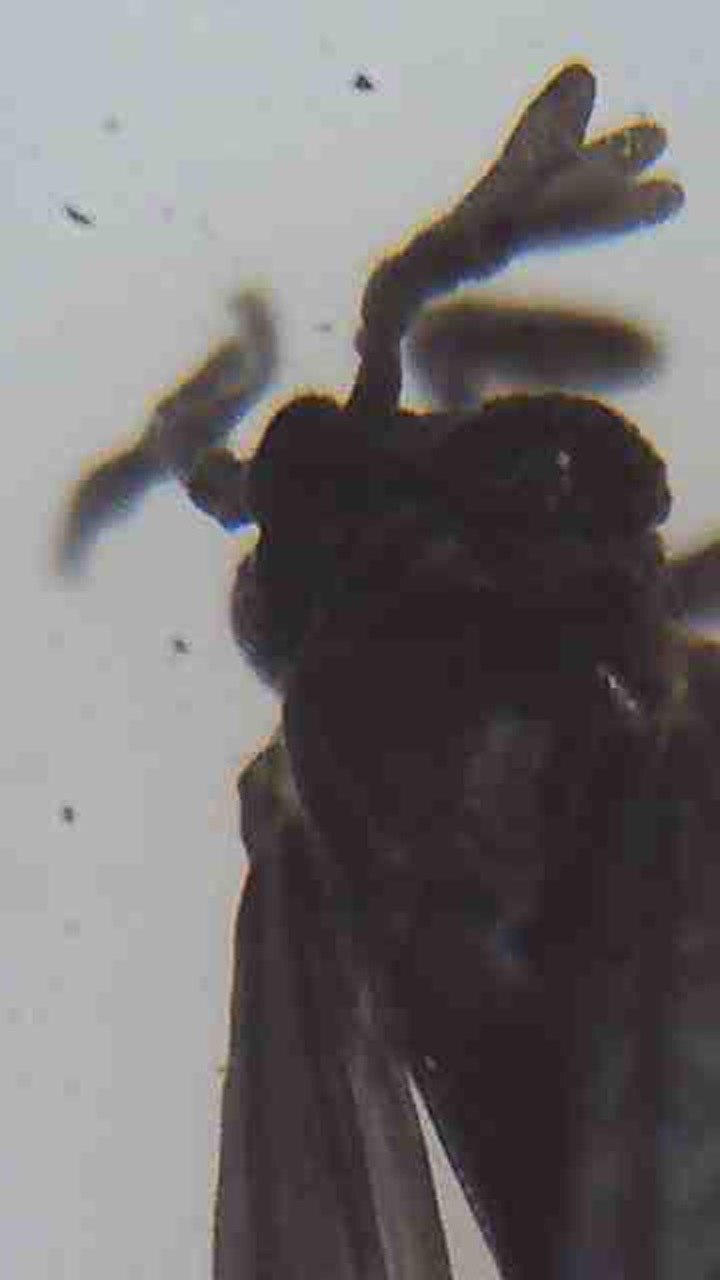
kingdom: Animalia
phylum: Arthropoda
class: Insecta
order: Strepsiptera
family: Halictophagidae
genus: Coriophagus
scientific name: Coriophagus casui
